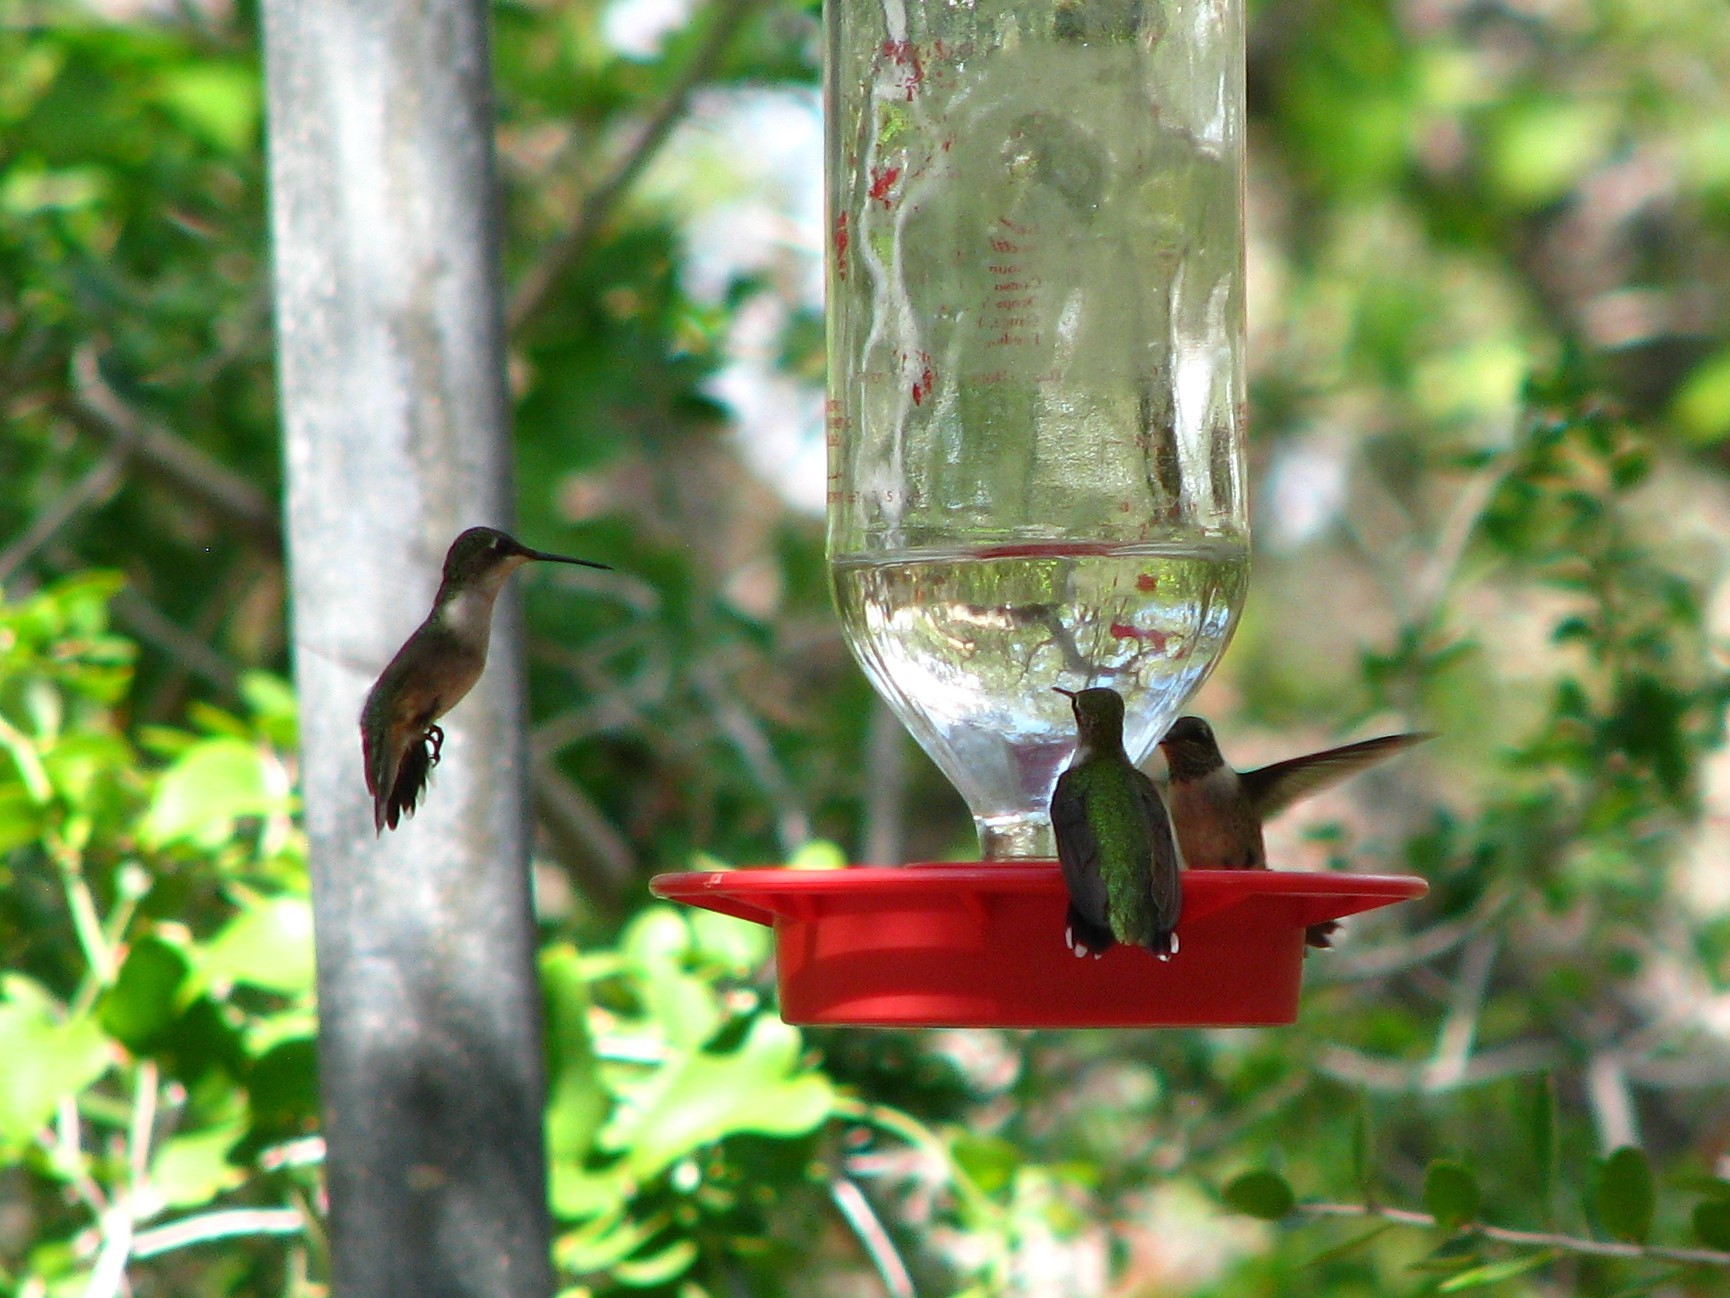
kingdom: Animalia
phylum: Chordata
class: Aves
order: Apodiformes
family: Trochilidae
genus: Archilochus
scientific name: Archilochus colubris
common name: Ruby-throated hummingbird
